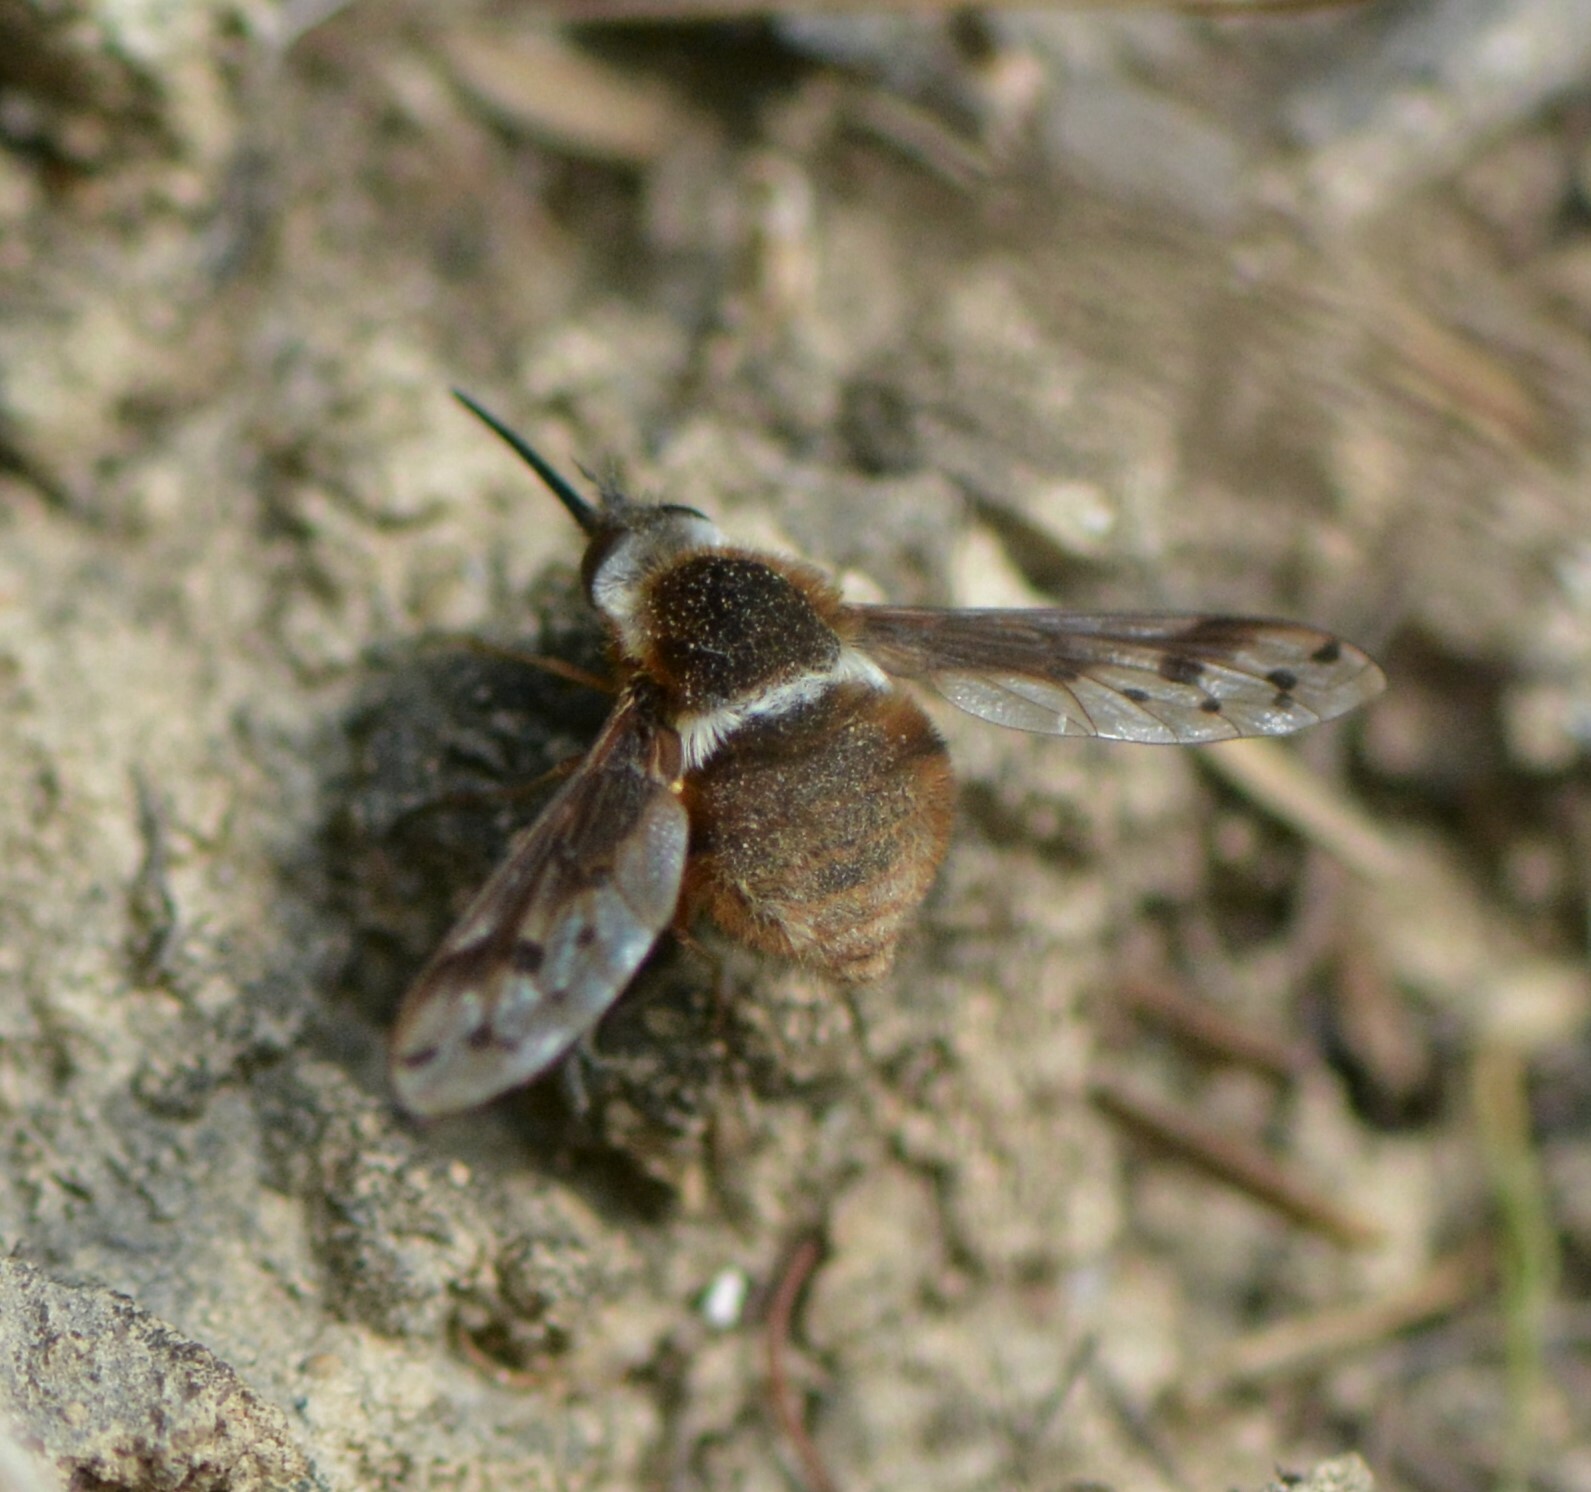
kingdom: Animalia
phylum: Arthropoda
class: Insecta
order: Diptera
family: Bombyliidae
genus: Bombylius
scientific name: Bombylius pygmaeus
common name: Pygmy bee fly
